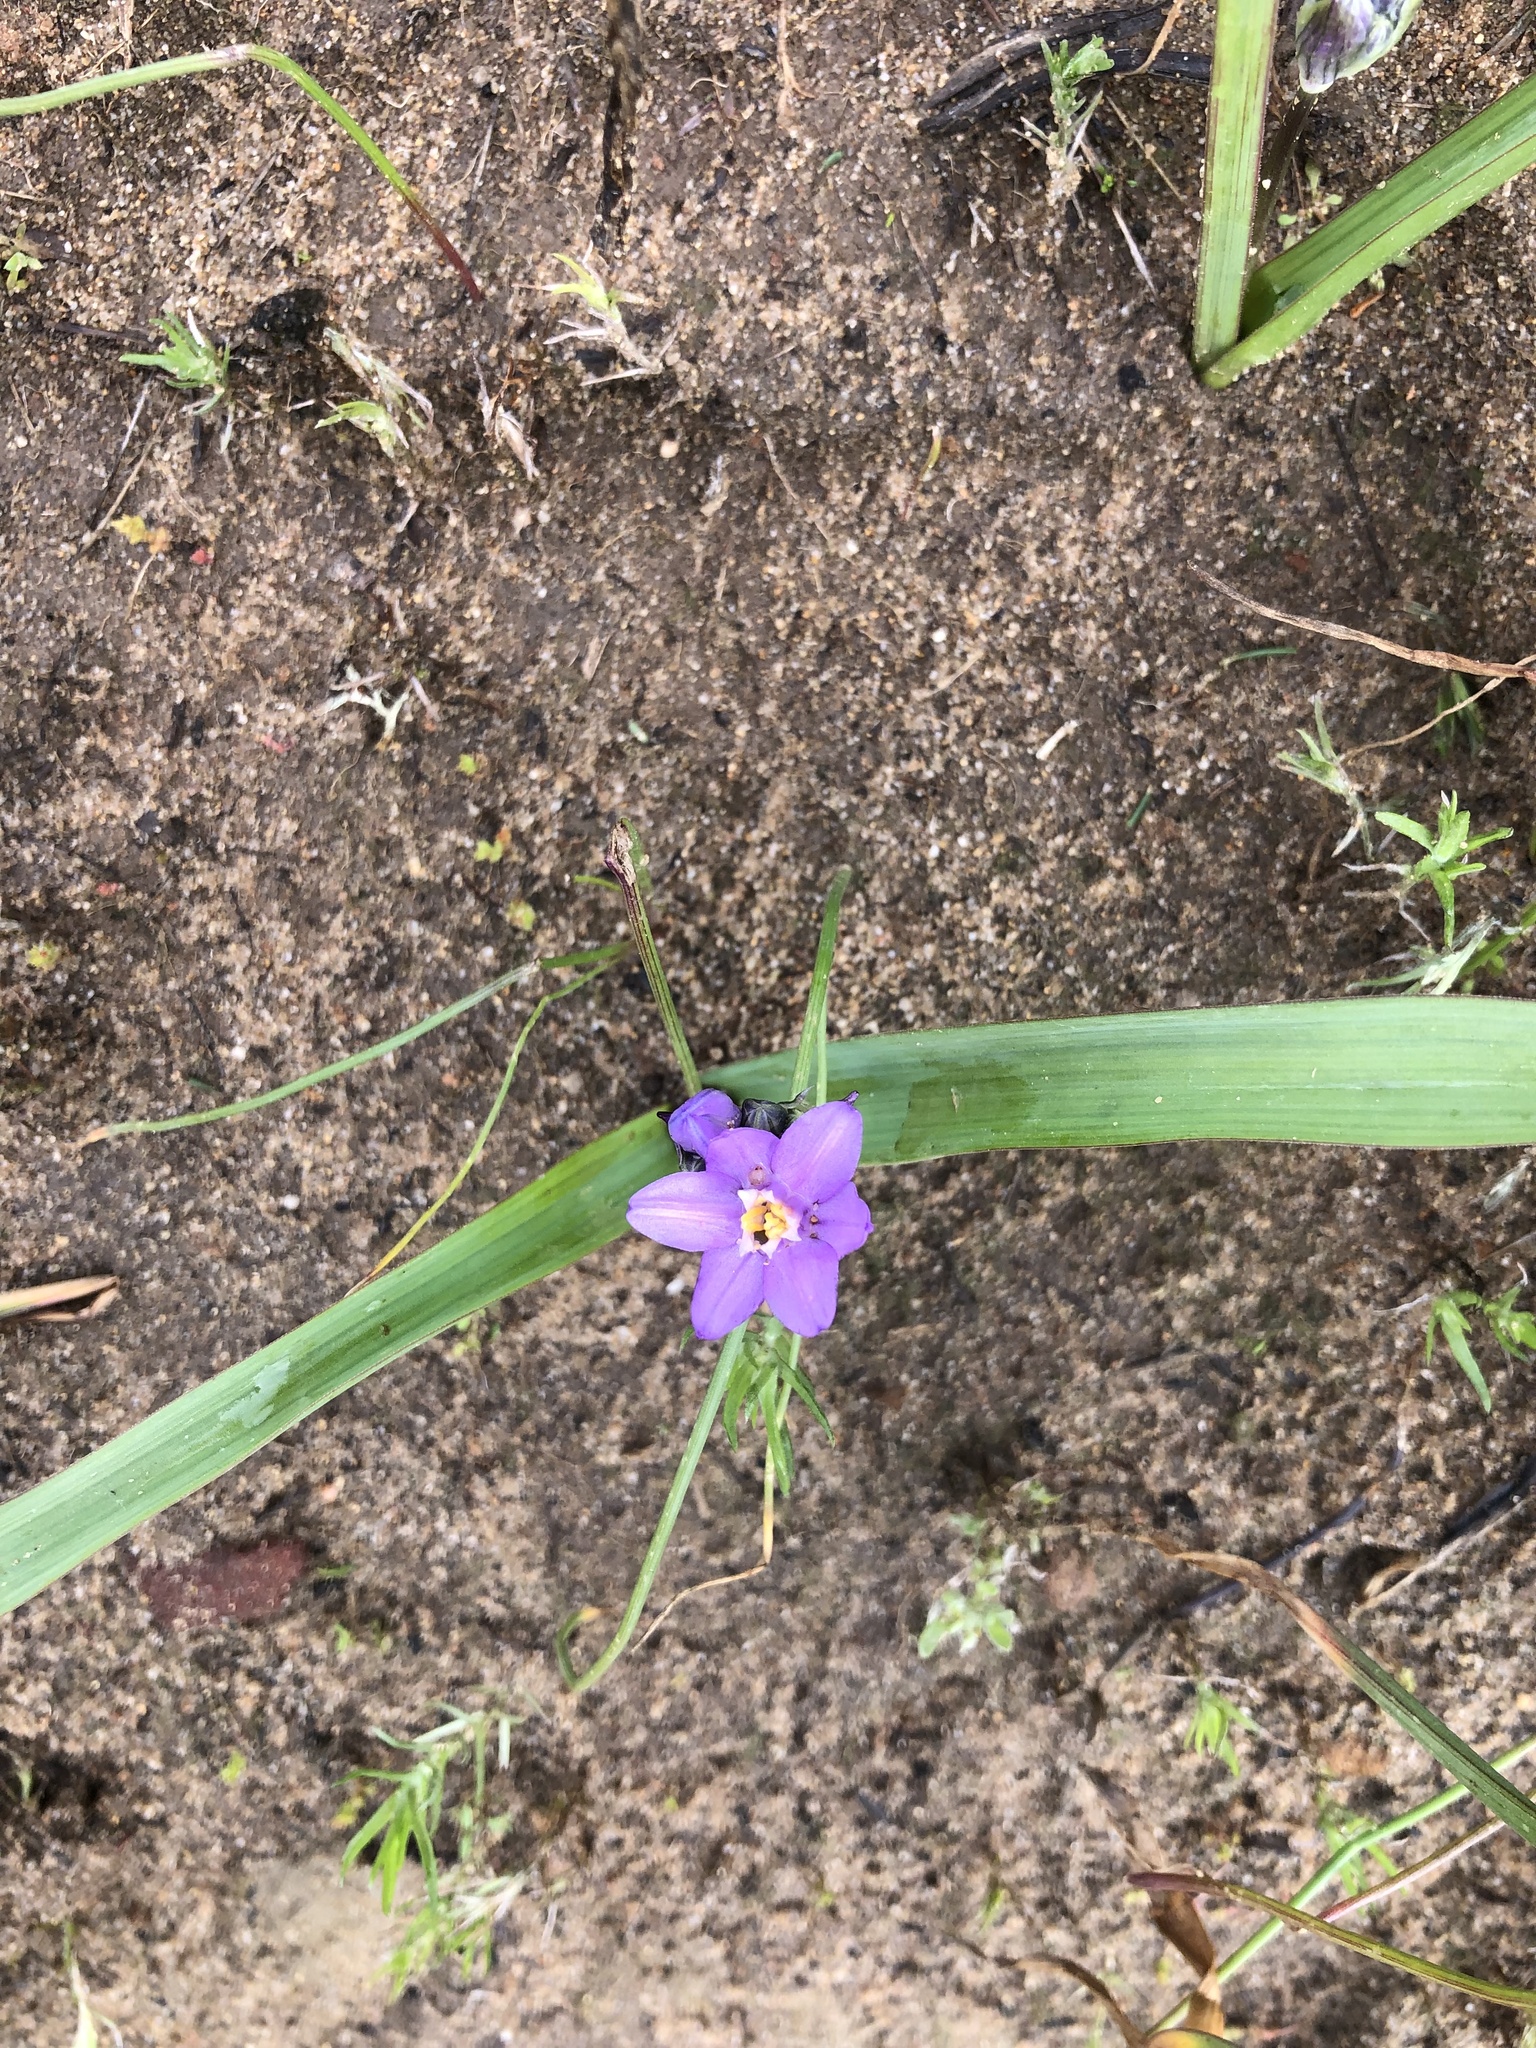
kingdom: Plantae
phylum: Tracheophyta
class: Liliopsida
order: Asparagales
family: Asparagaceae
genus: Dipterostemon
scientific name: Dipterostemon capitatus
